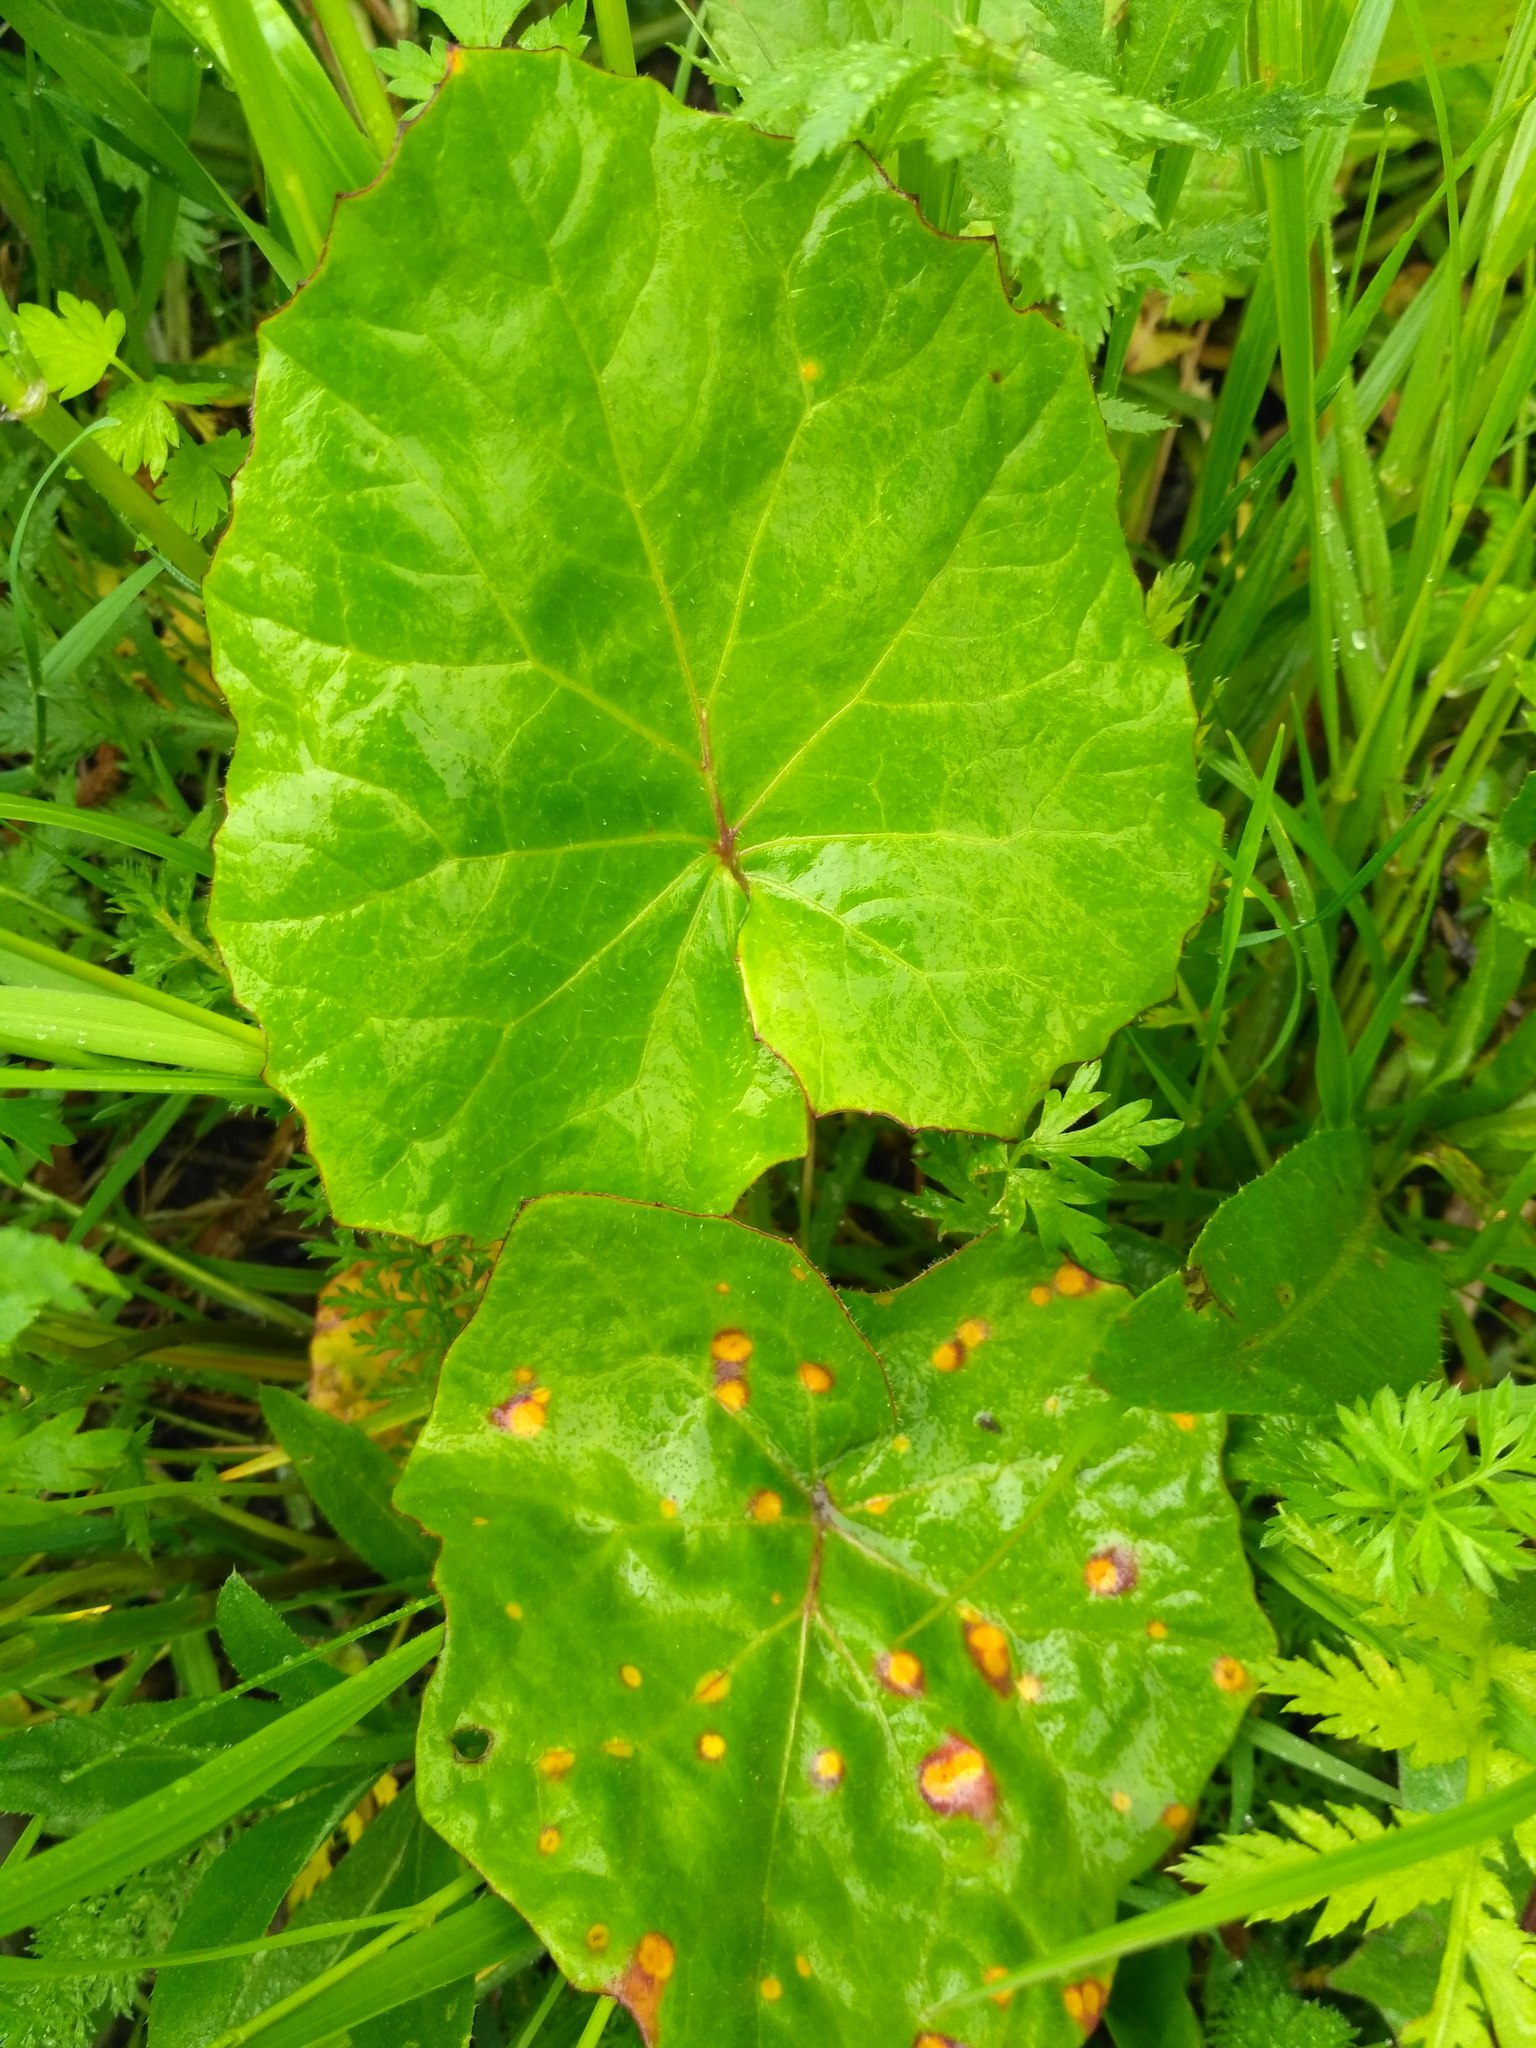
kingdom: Plantae
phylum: Tracheophyta
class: Magnoliopsida
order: Asterales
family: Asteraceae
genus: Tussilago
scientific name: Tussilago farfara
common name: Coltsfoot
